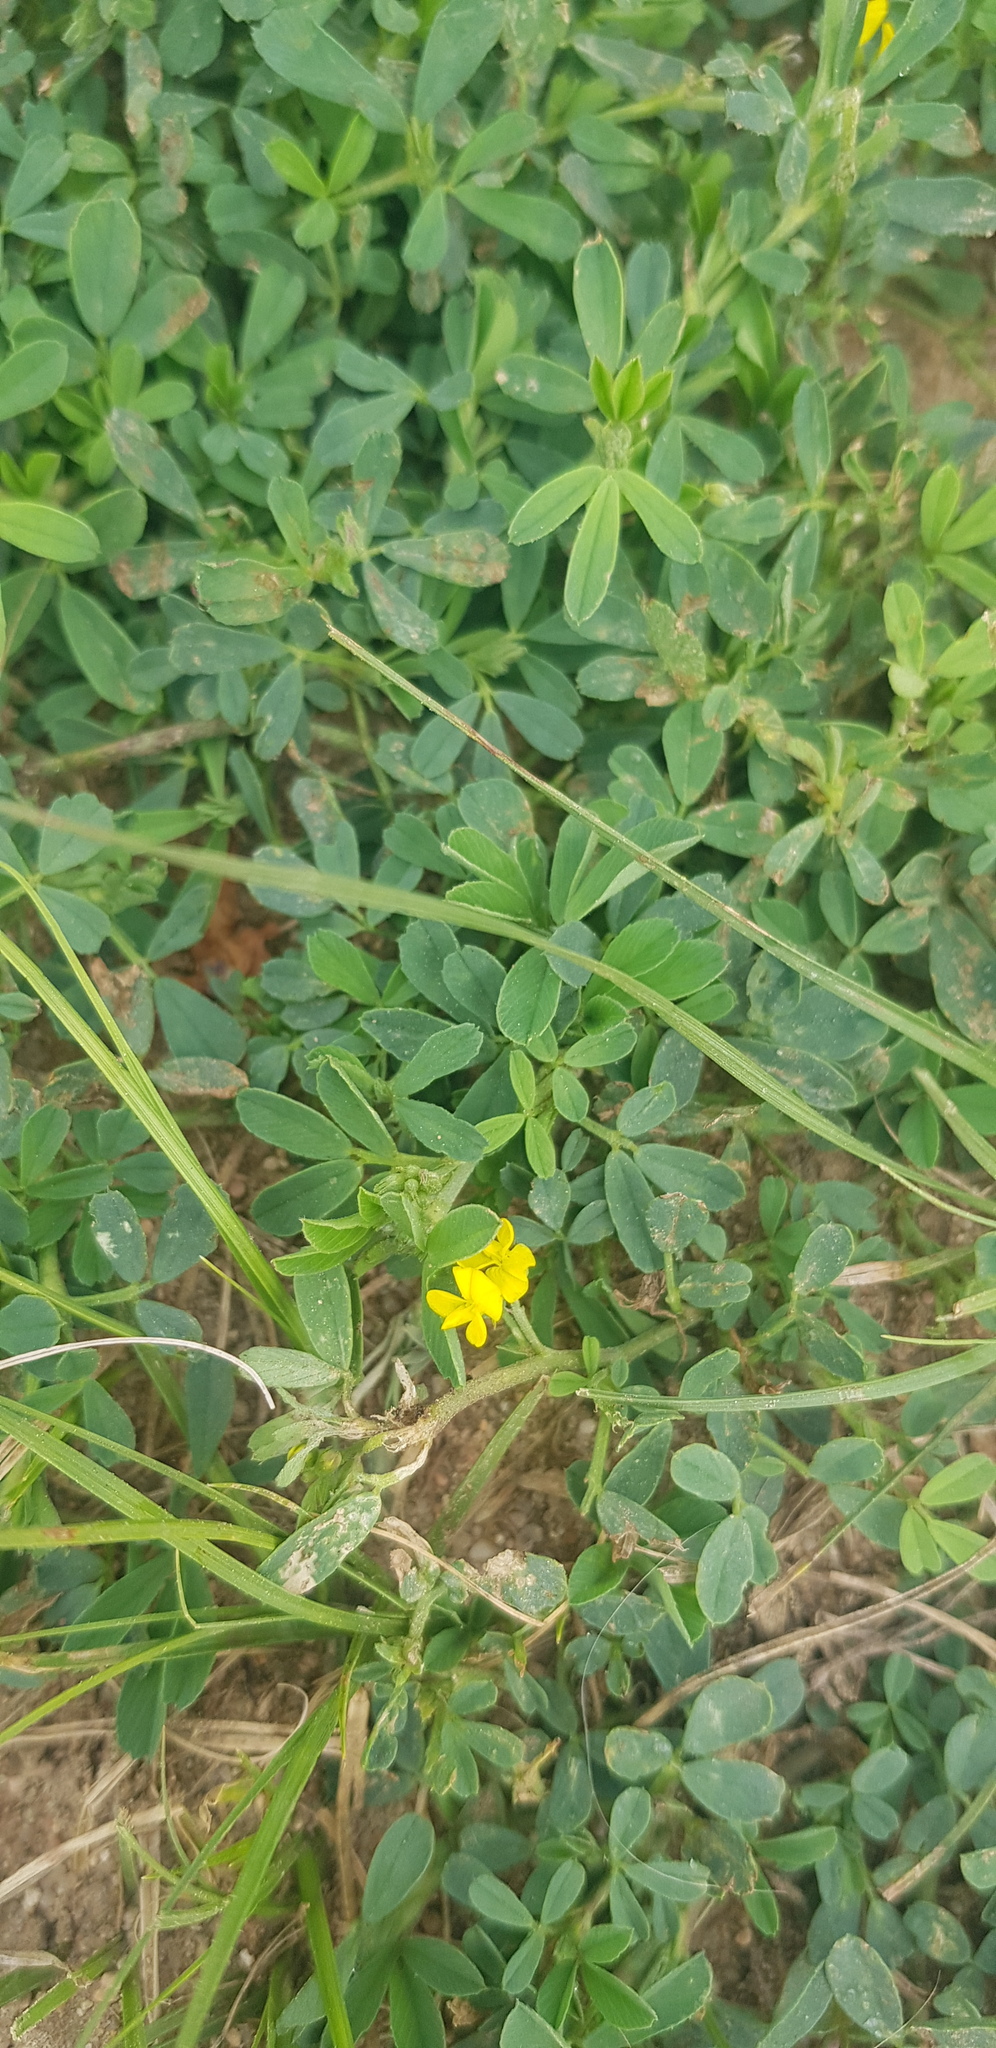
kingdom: Plantae
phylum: Tracheophyta
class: Magnoliopsida
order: Fabales
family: Fabaceae
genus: Medicago
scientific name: Medicago falcata
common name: Sickle medick
